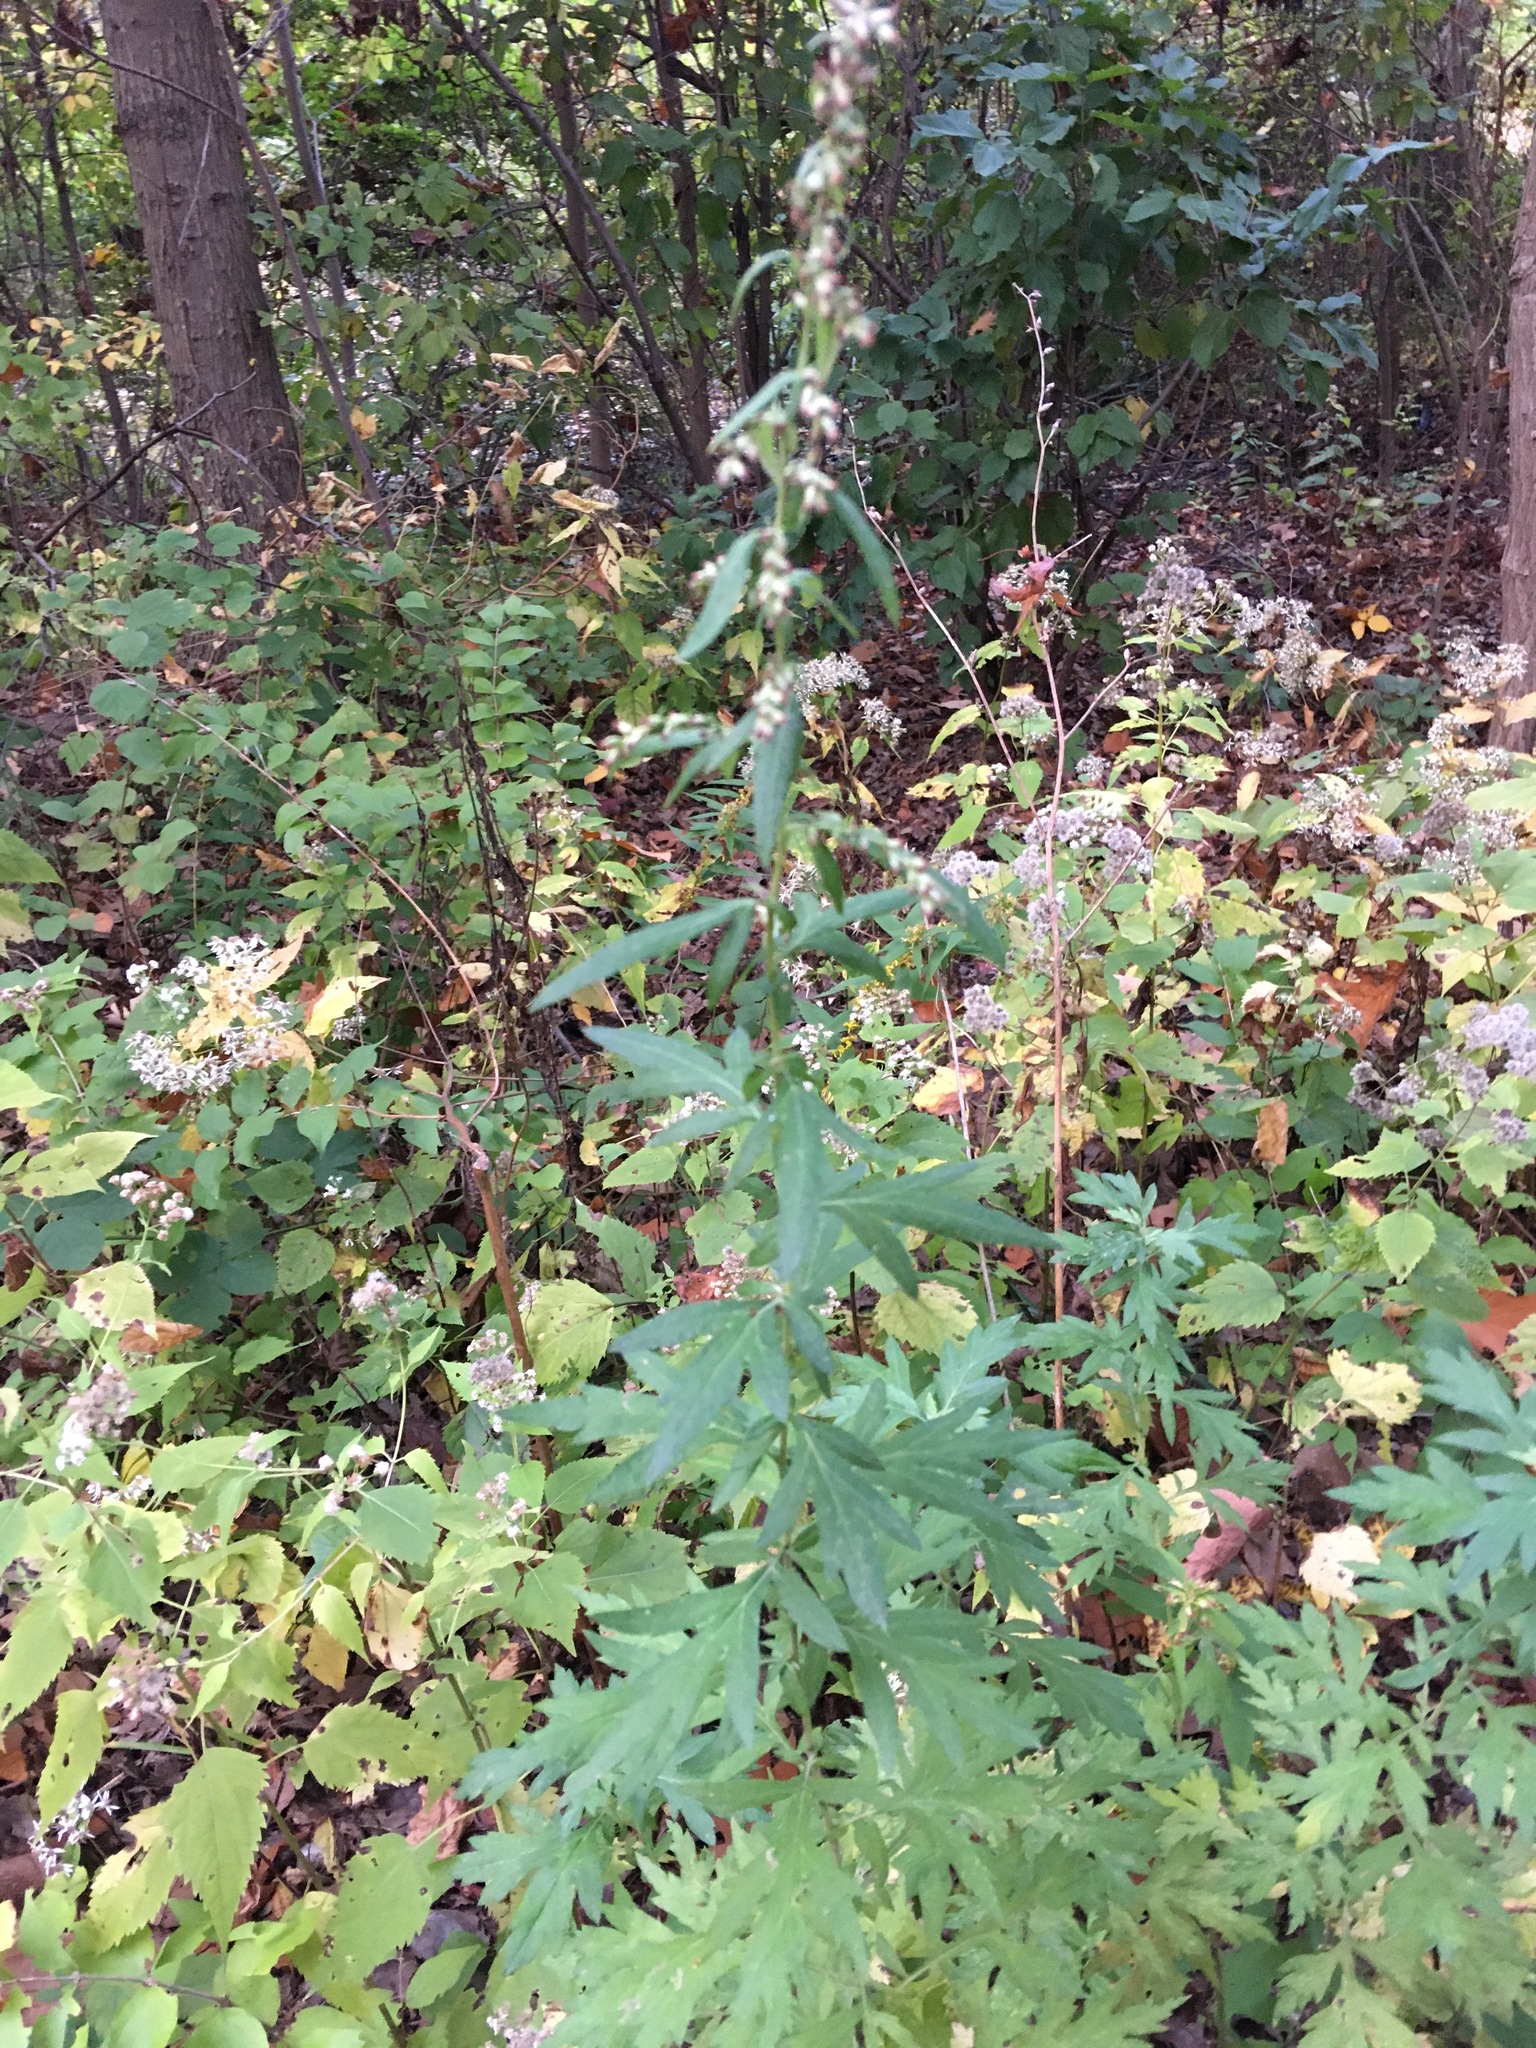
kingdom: Plantae
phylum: Tracheophyta
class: Magnoliopsida
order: Asterales
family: Asteraceae
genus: Artemisia
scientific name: Artemisia vulgaris
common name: Mugwort
